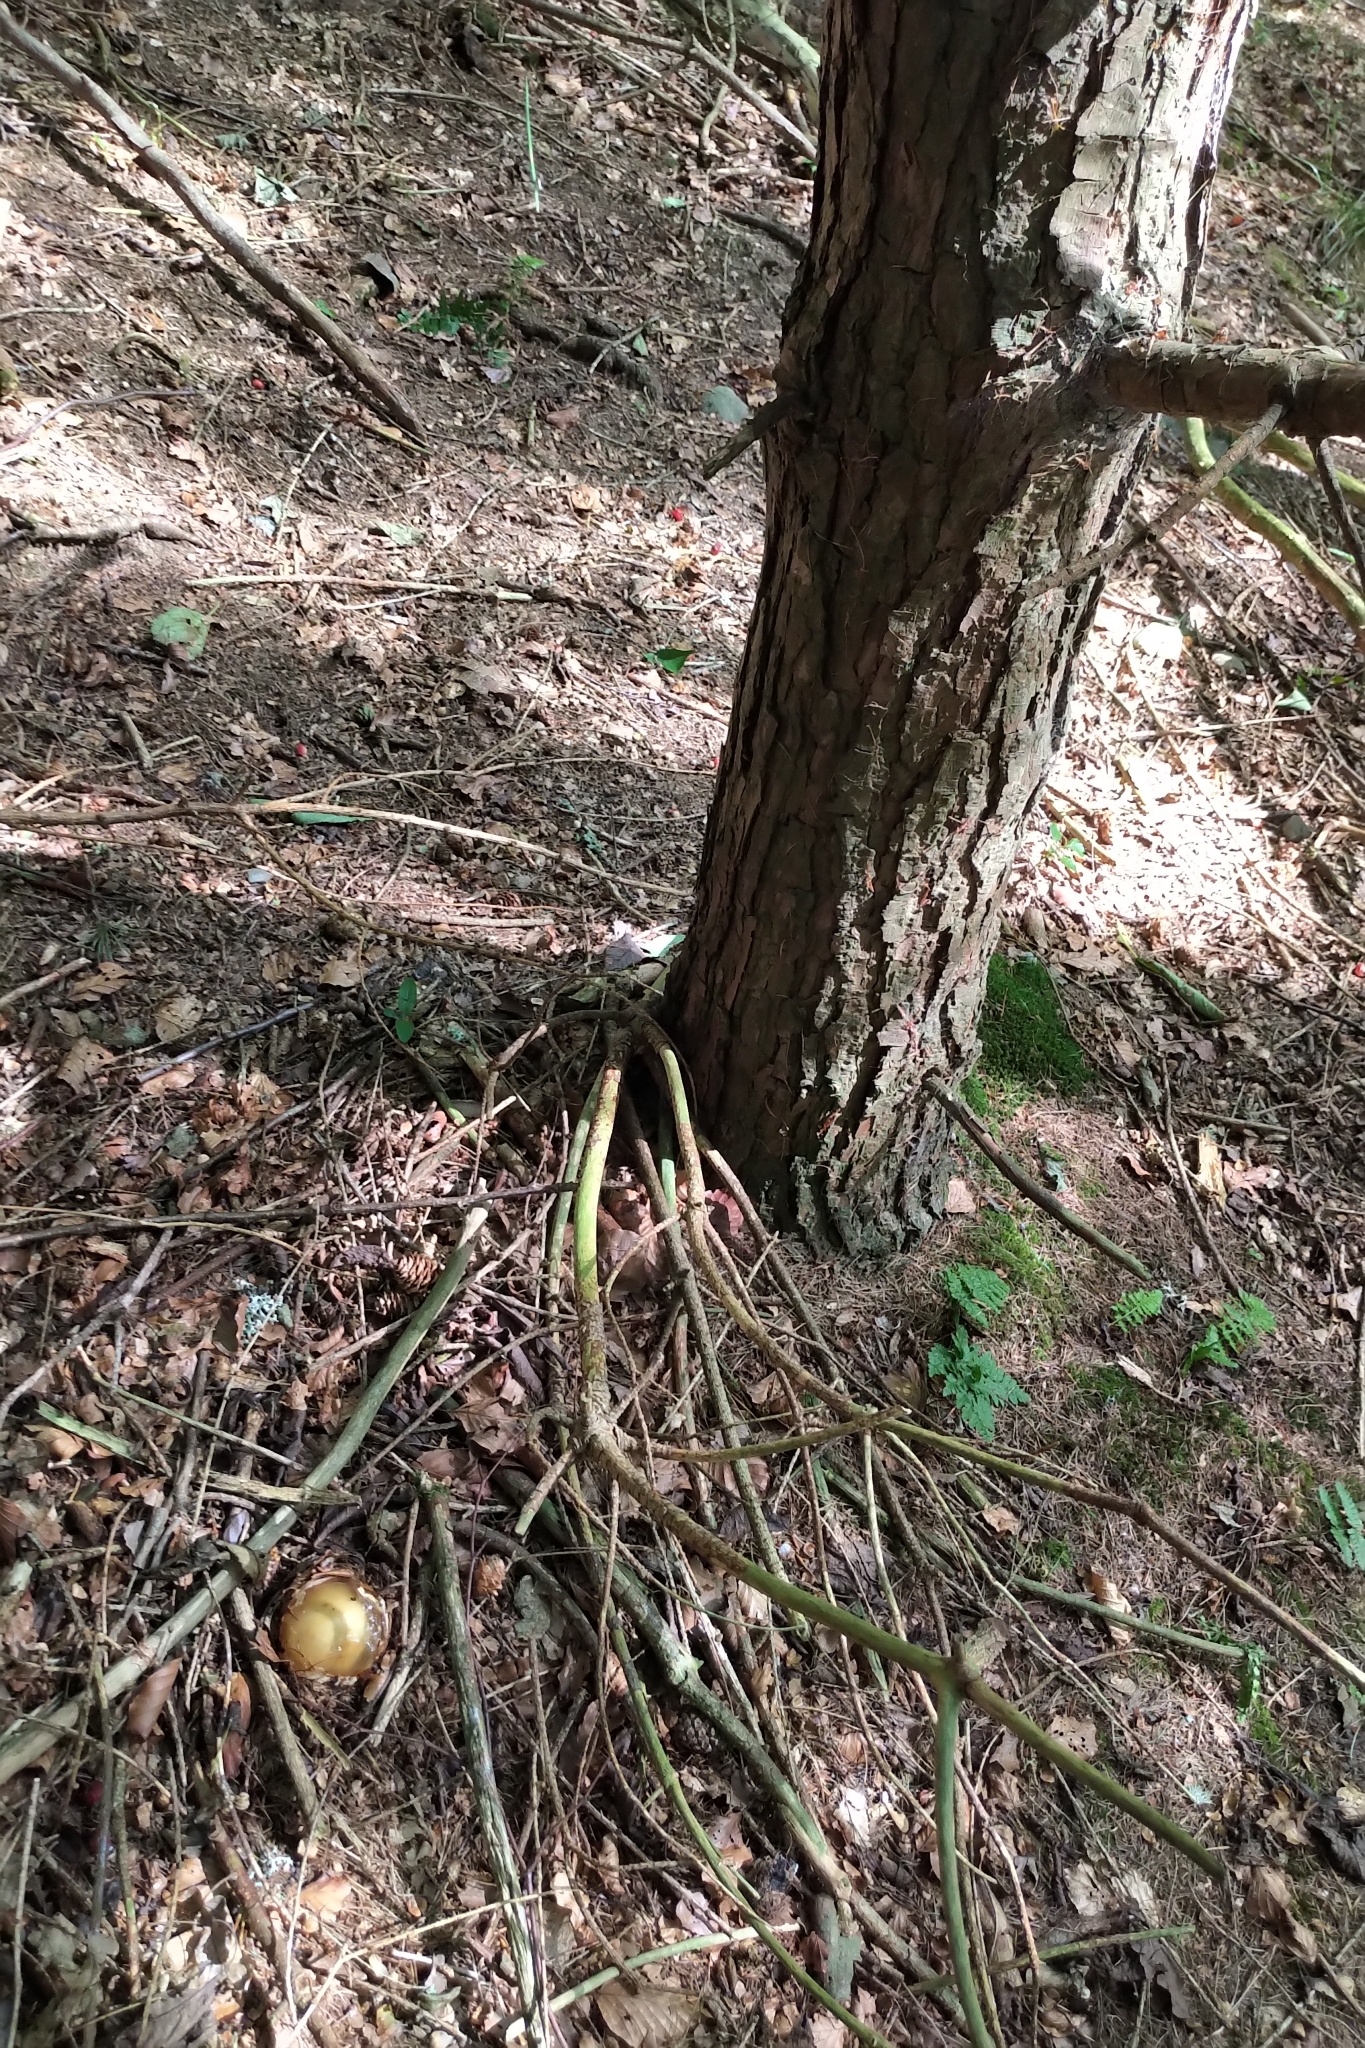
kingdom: Fungi
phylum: Basidiomycota
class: Agaricomycetes
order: Phallales
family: Phallaceae
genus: Phallus
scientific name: Phallus impudicus
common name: Common stinkhorn
